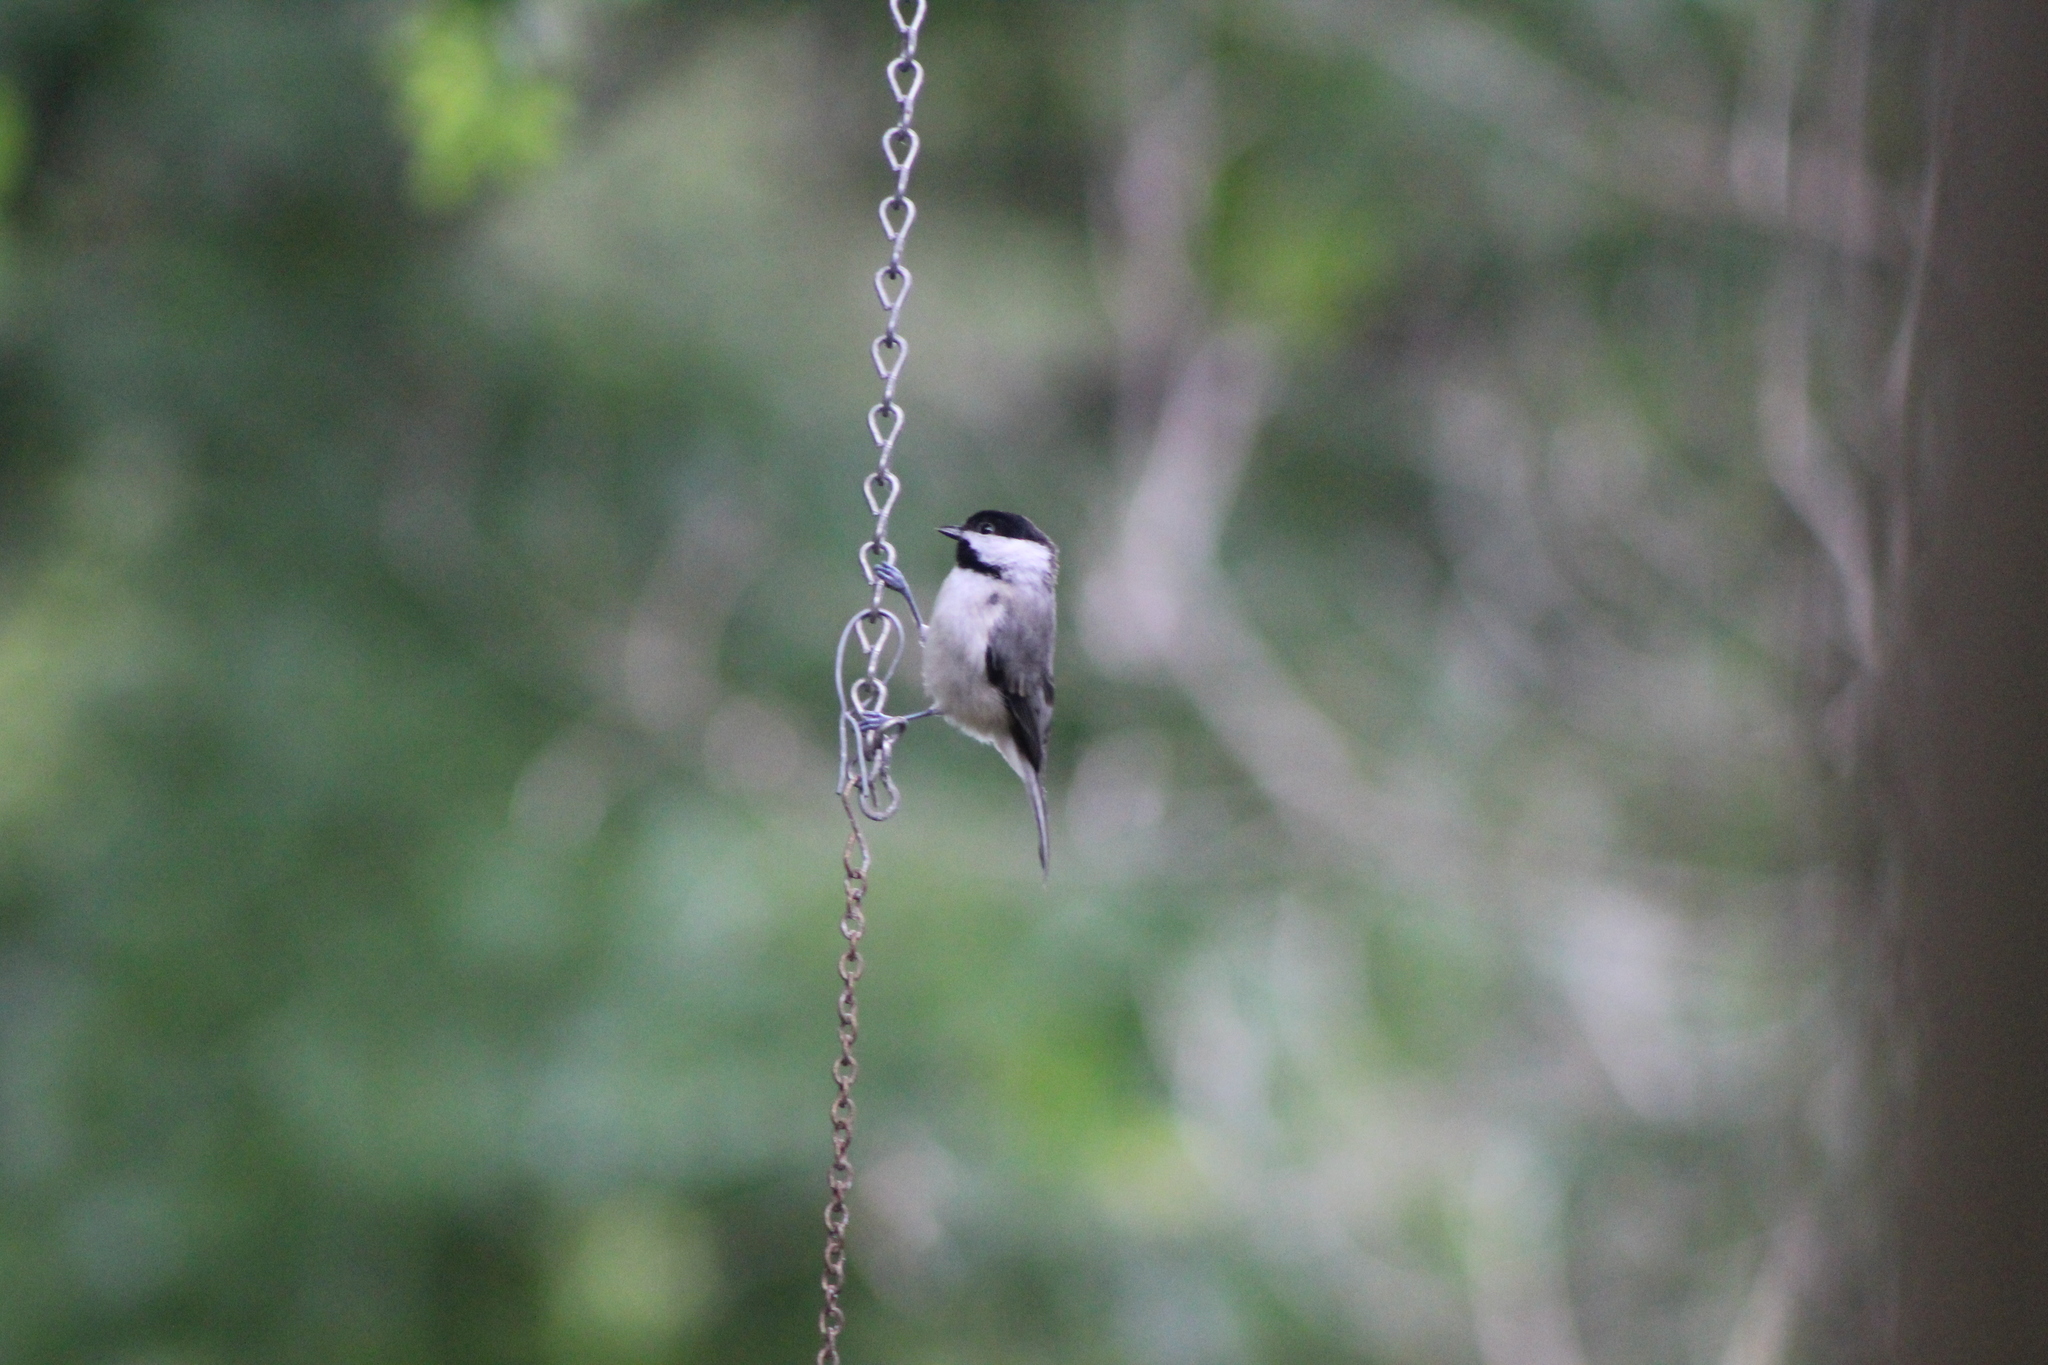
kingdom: Animalia
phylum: Chordata
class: Aves
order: Passeriformes
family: Paridae
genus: Poecile
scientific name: Poecile carolinensis
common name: Carolina chickadee
